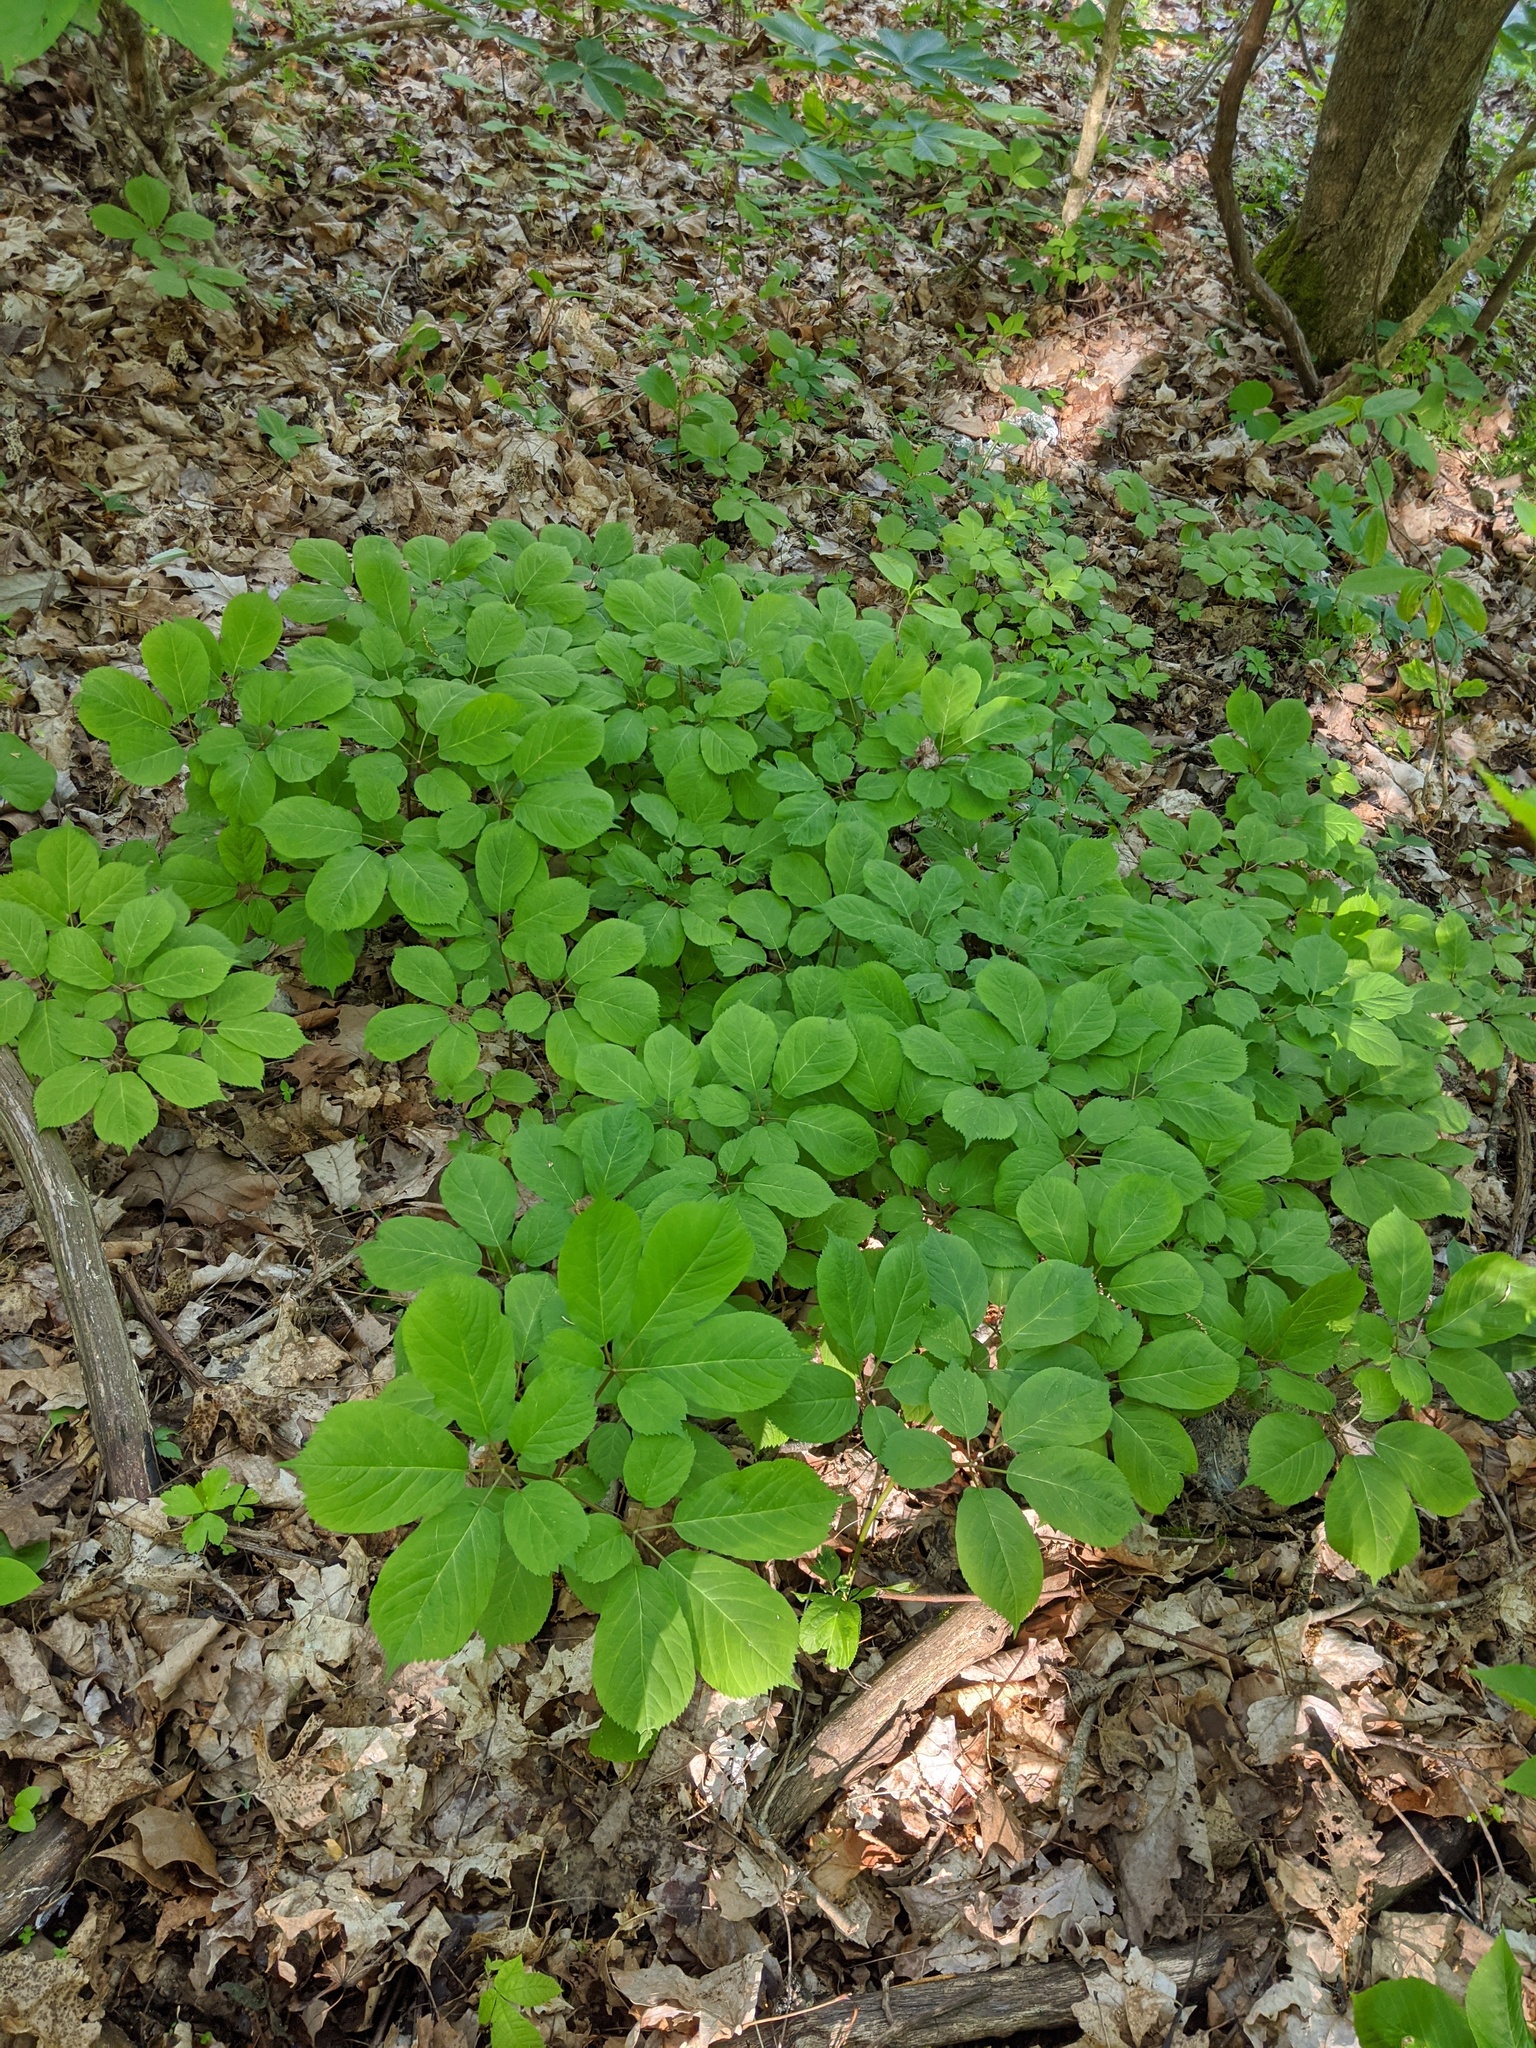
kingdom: Plantae
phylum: Tracheophyta
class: Magnoliopsida
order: Apiales
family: Araliaceae
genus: Panax
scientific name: Panax quinquefolius
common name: American ginseng
